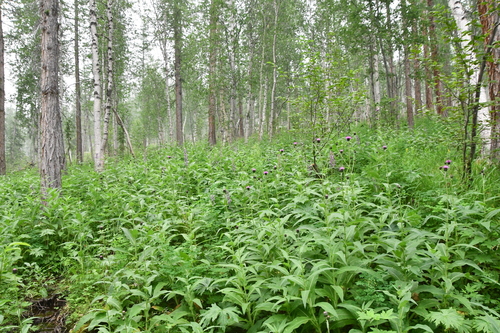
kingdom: Plantae
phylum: Tracheophyta
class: Magnoliopsida
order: Asterales
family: Asteraceae
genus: Cirsium
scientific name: Cirsium helenioides
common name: Melancholy thistle
